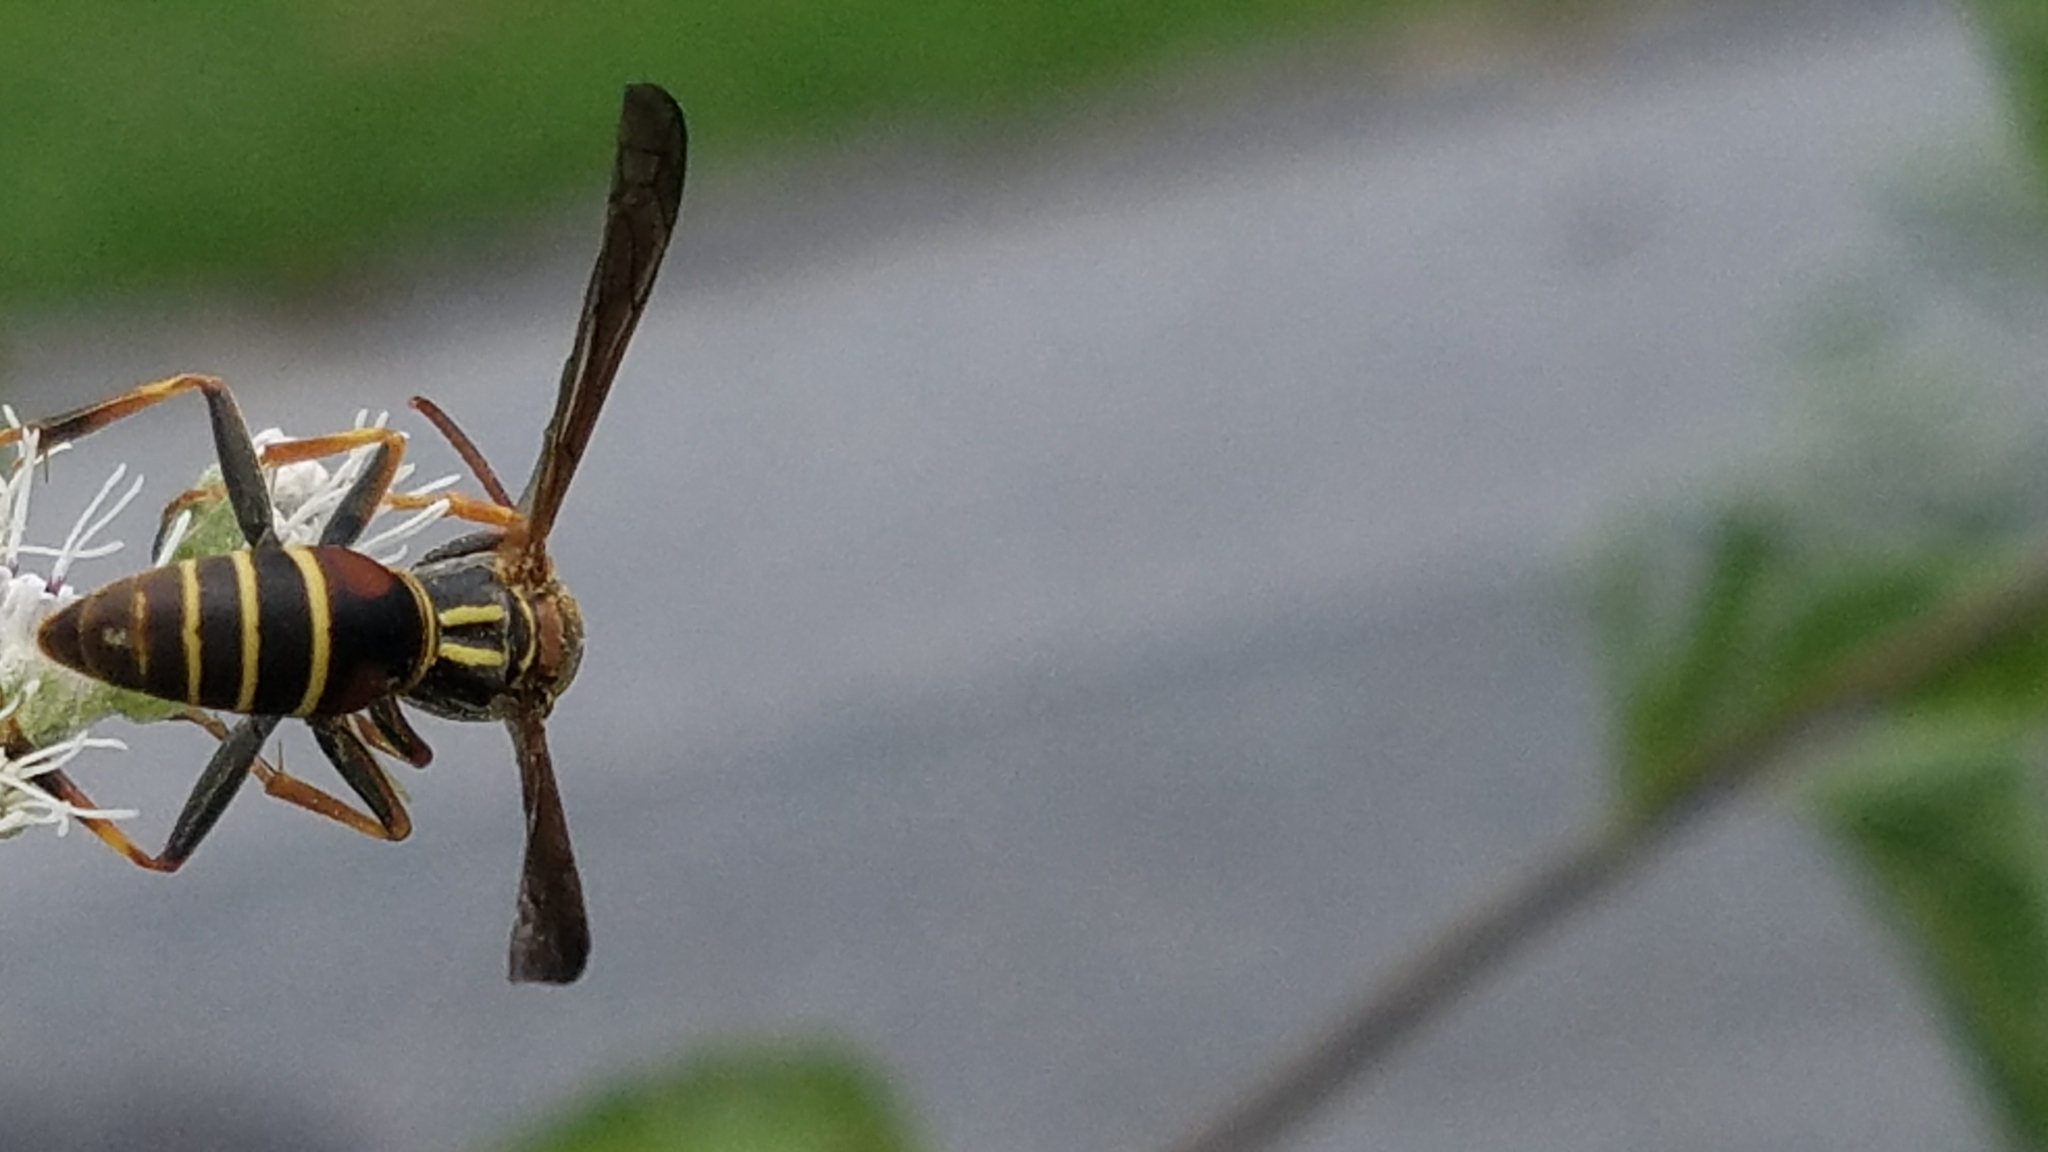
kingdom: Animalia
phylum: Arthropoda
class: Insecta
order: Hymenoptera
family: Eumenidae
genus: Polistes
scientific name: Polistes fuscatus
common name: Dark paper wasp
